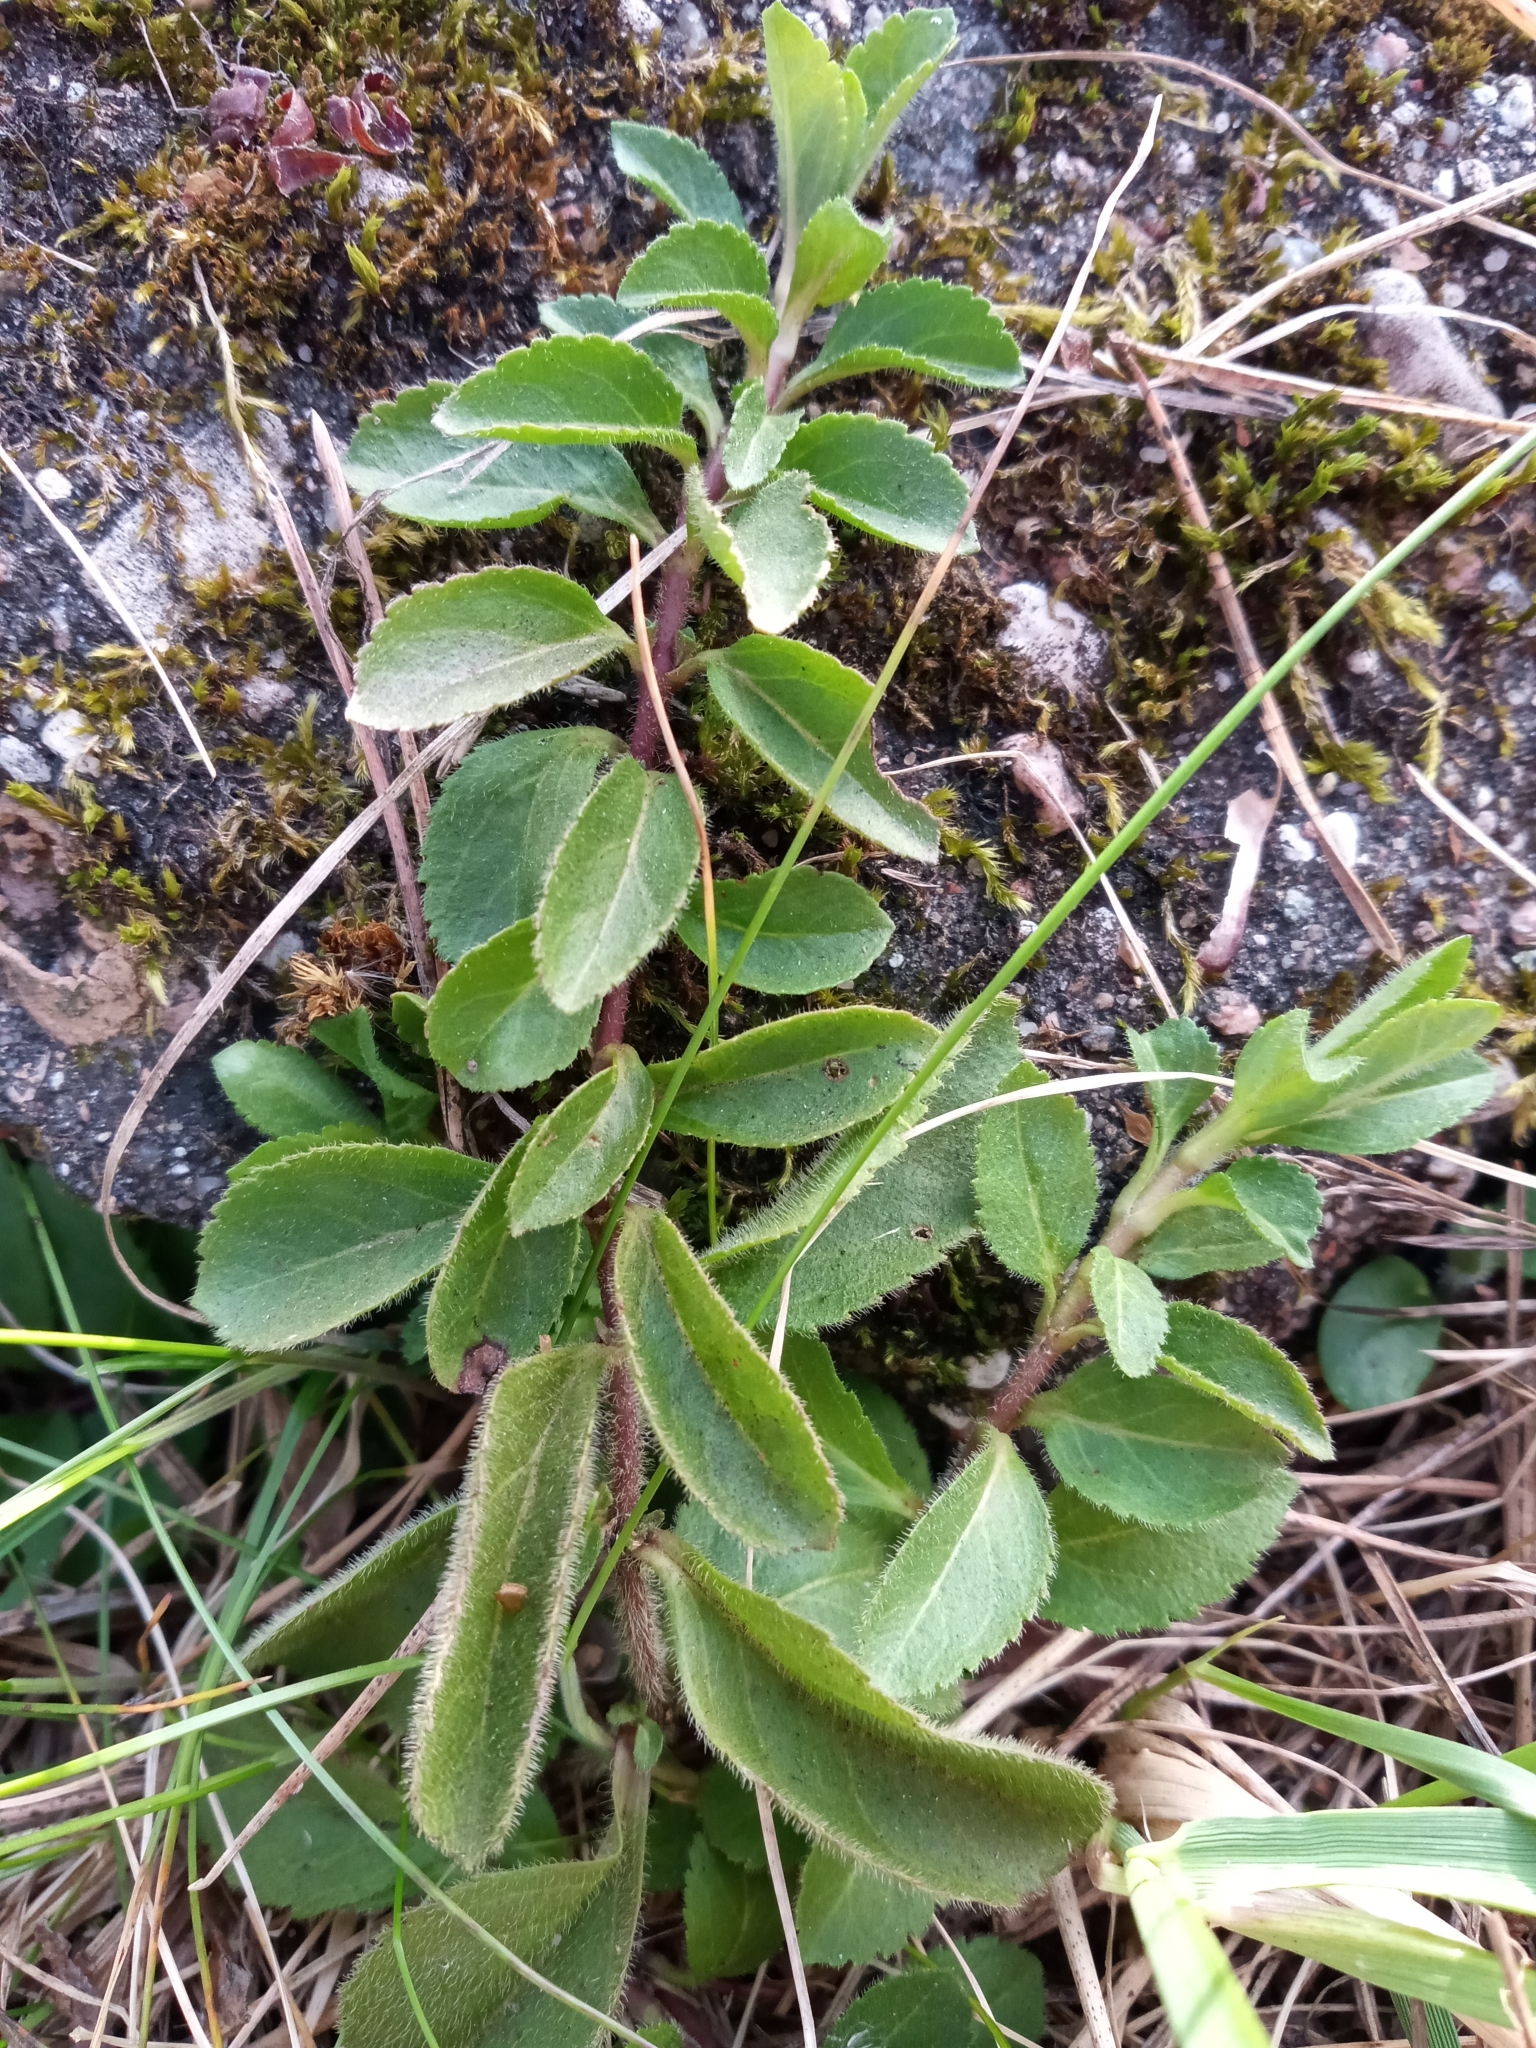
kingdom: Plantae
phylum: Tracheophyta
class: Magnoliopsida
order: Lamiales
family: Plantaginaceae
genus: Veronica
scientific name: Veronica officinalis
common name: Common speedwell
